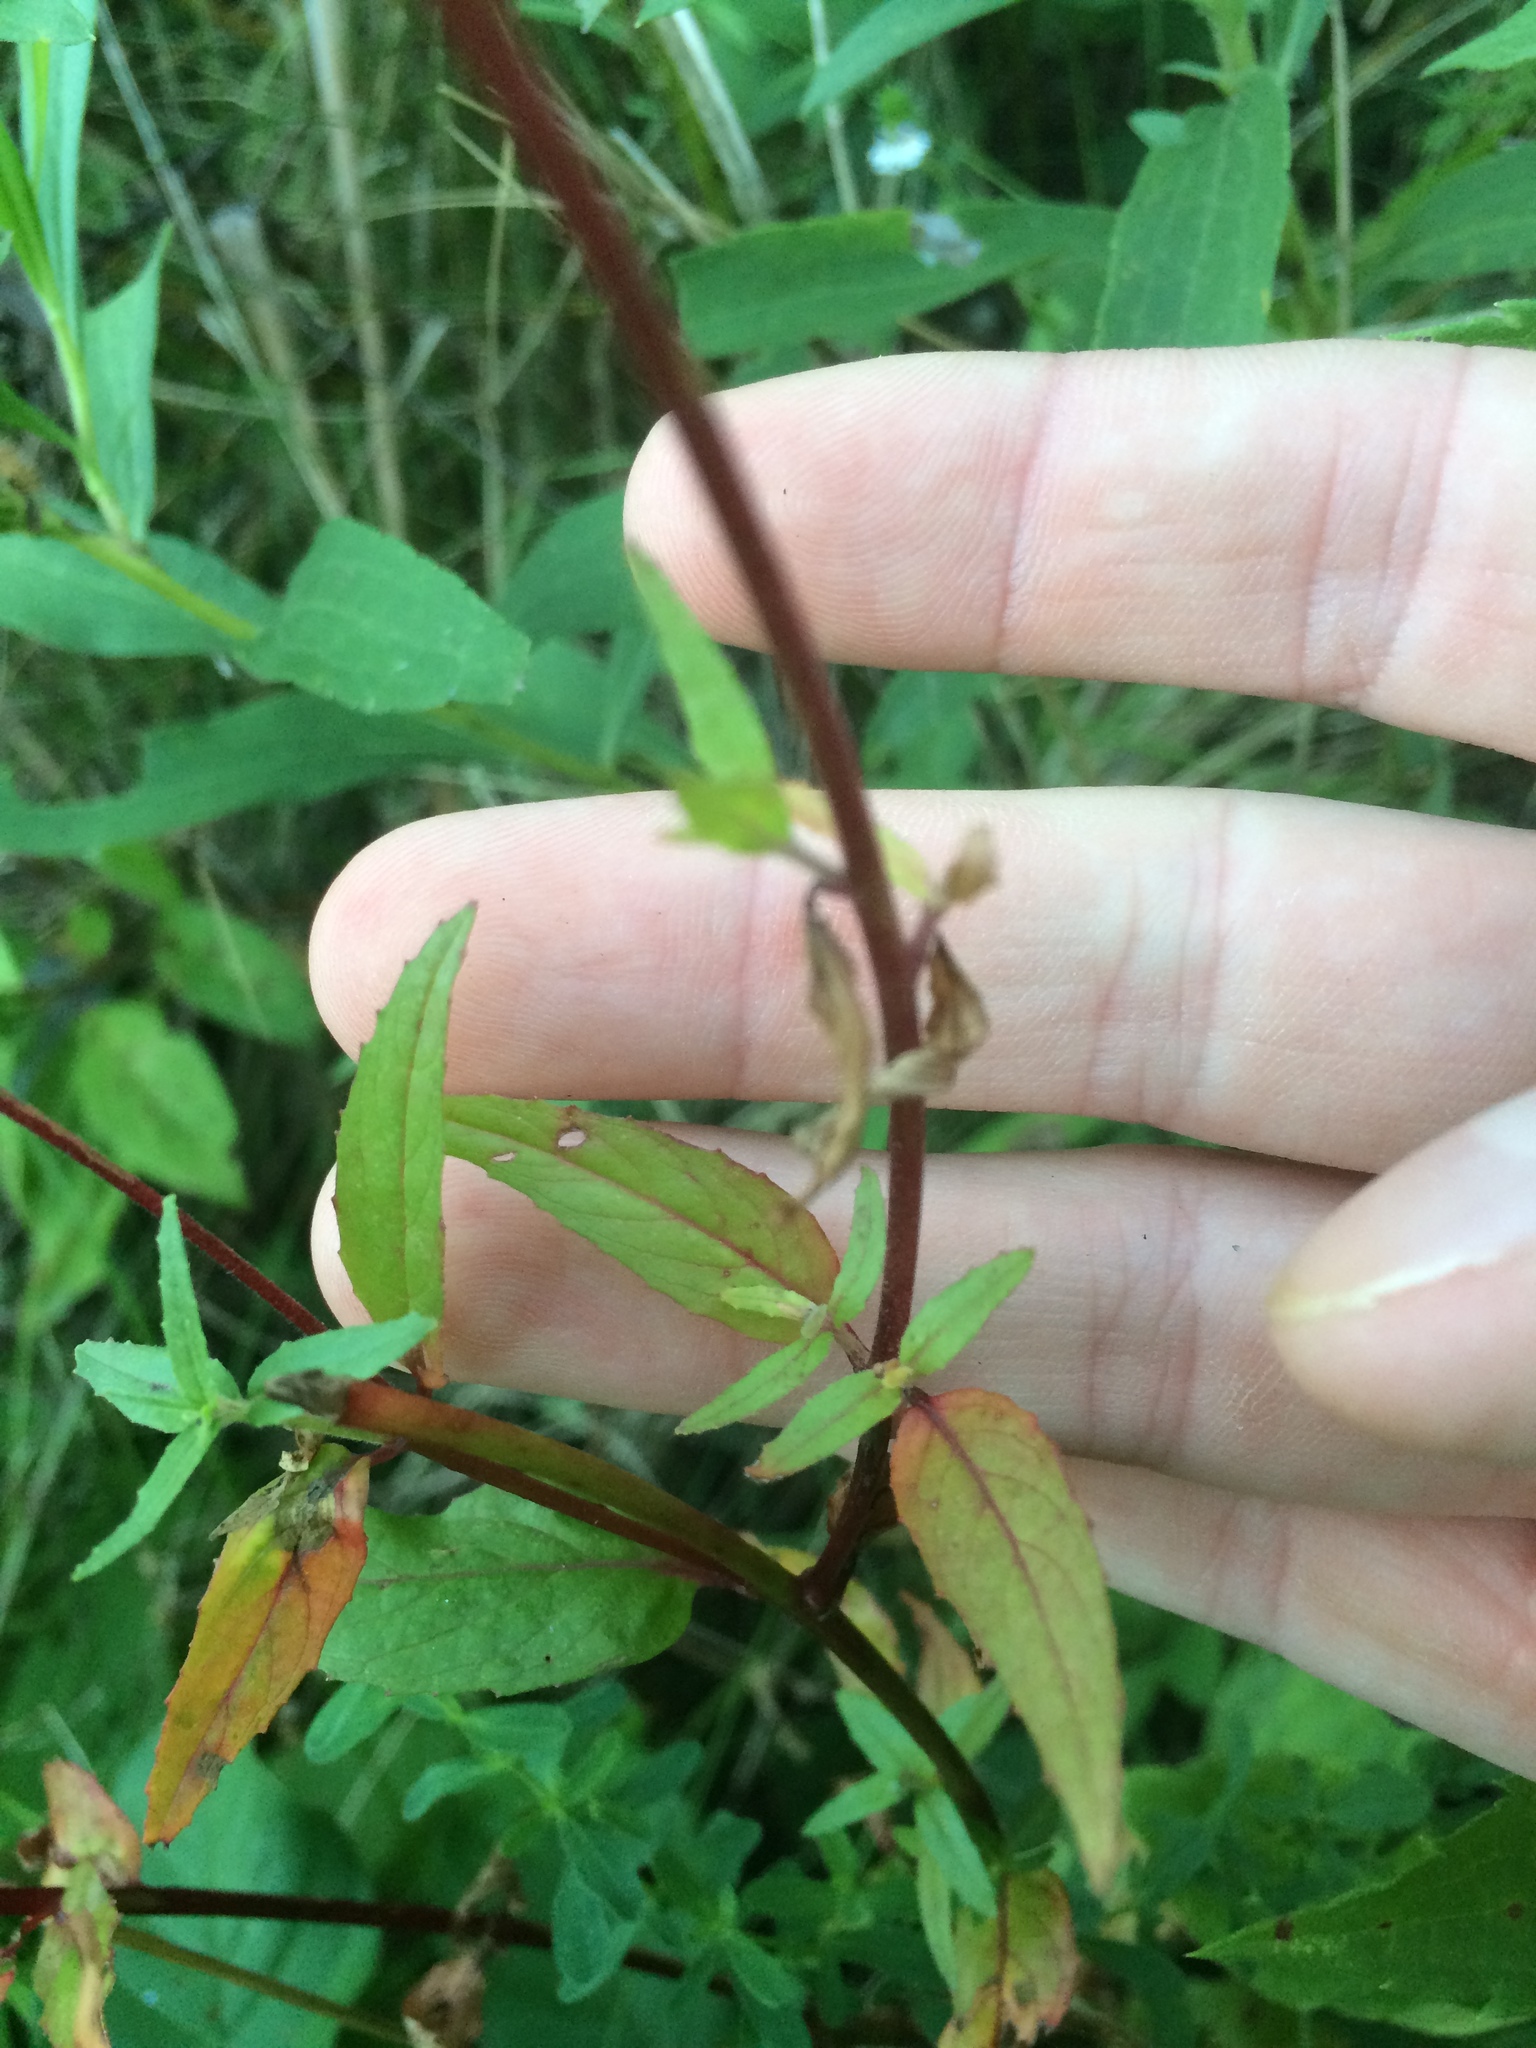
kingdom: Plantae
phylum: Tracheophyta
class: Magnoliopsida
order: Myrtales
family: Onagraceae
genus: Epilobium
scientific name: Epilobium ciliatum
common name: American willowherb
